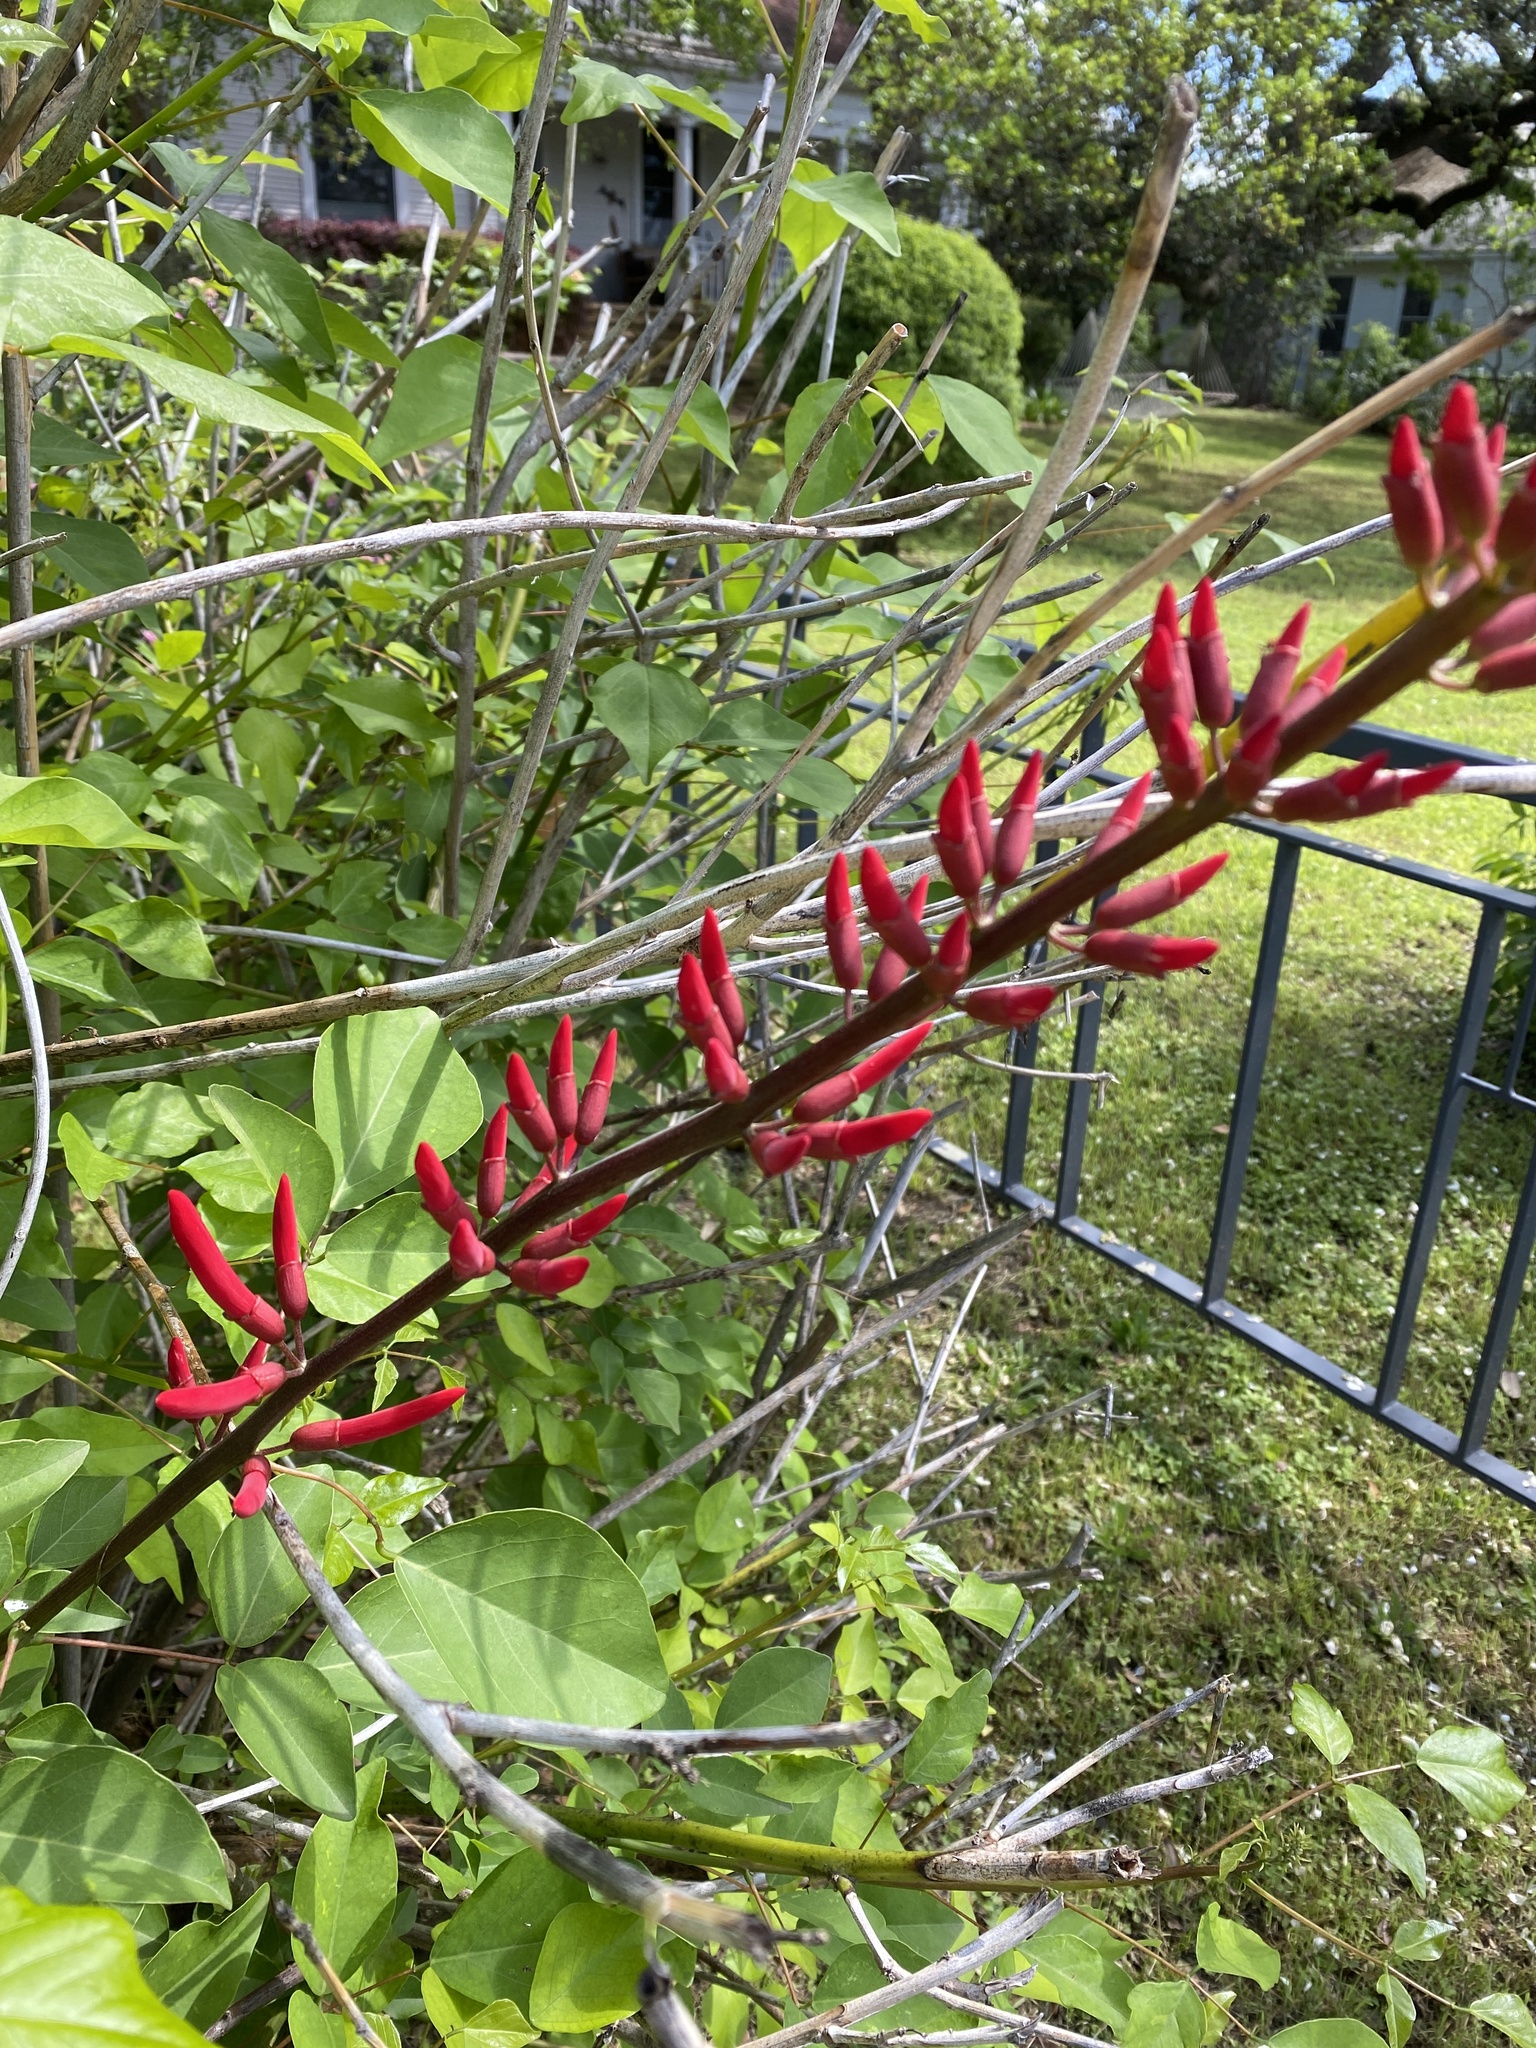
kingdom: Plantae
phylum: Tracheophyta
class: Magnoliopsida
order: Fabales
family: Fabaceae
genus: Erythrina
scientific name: Erythrina herbacea
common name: Coral-bean
